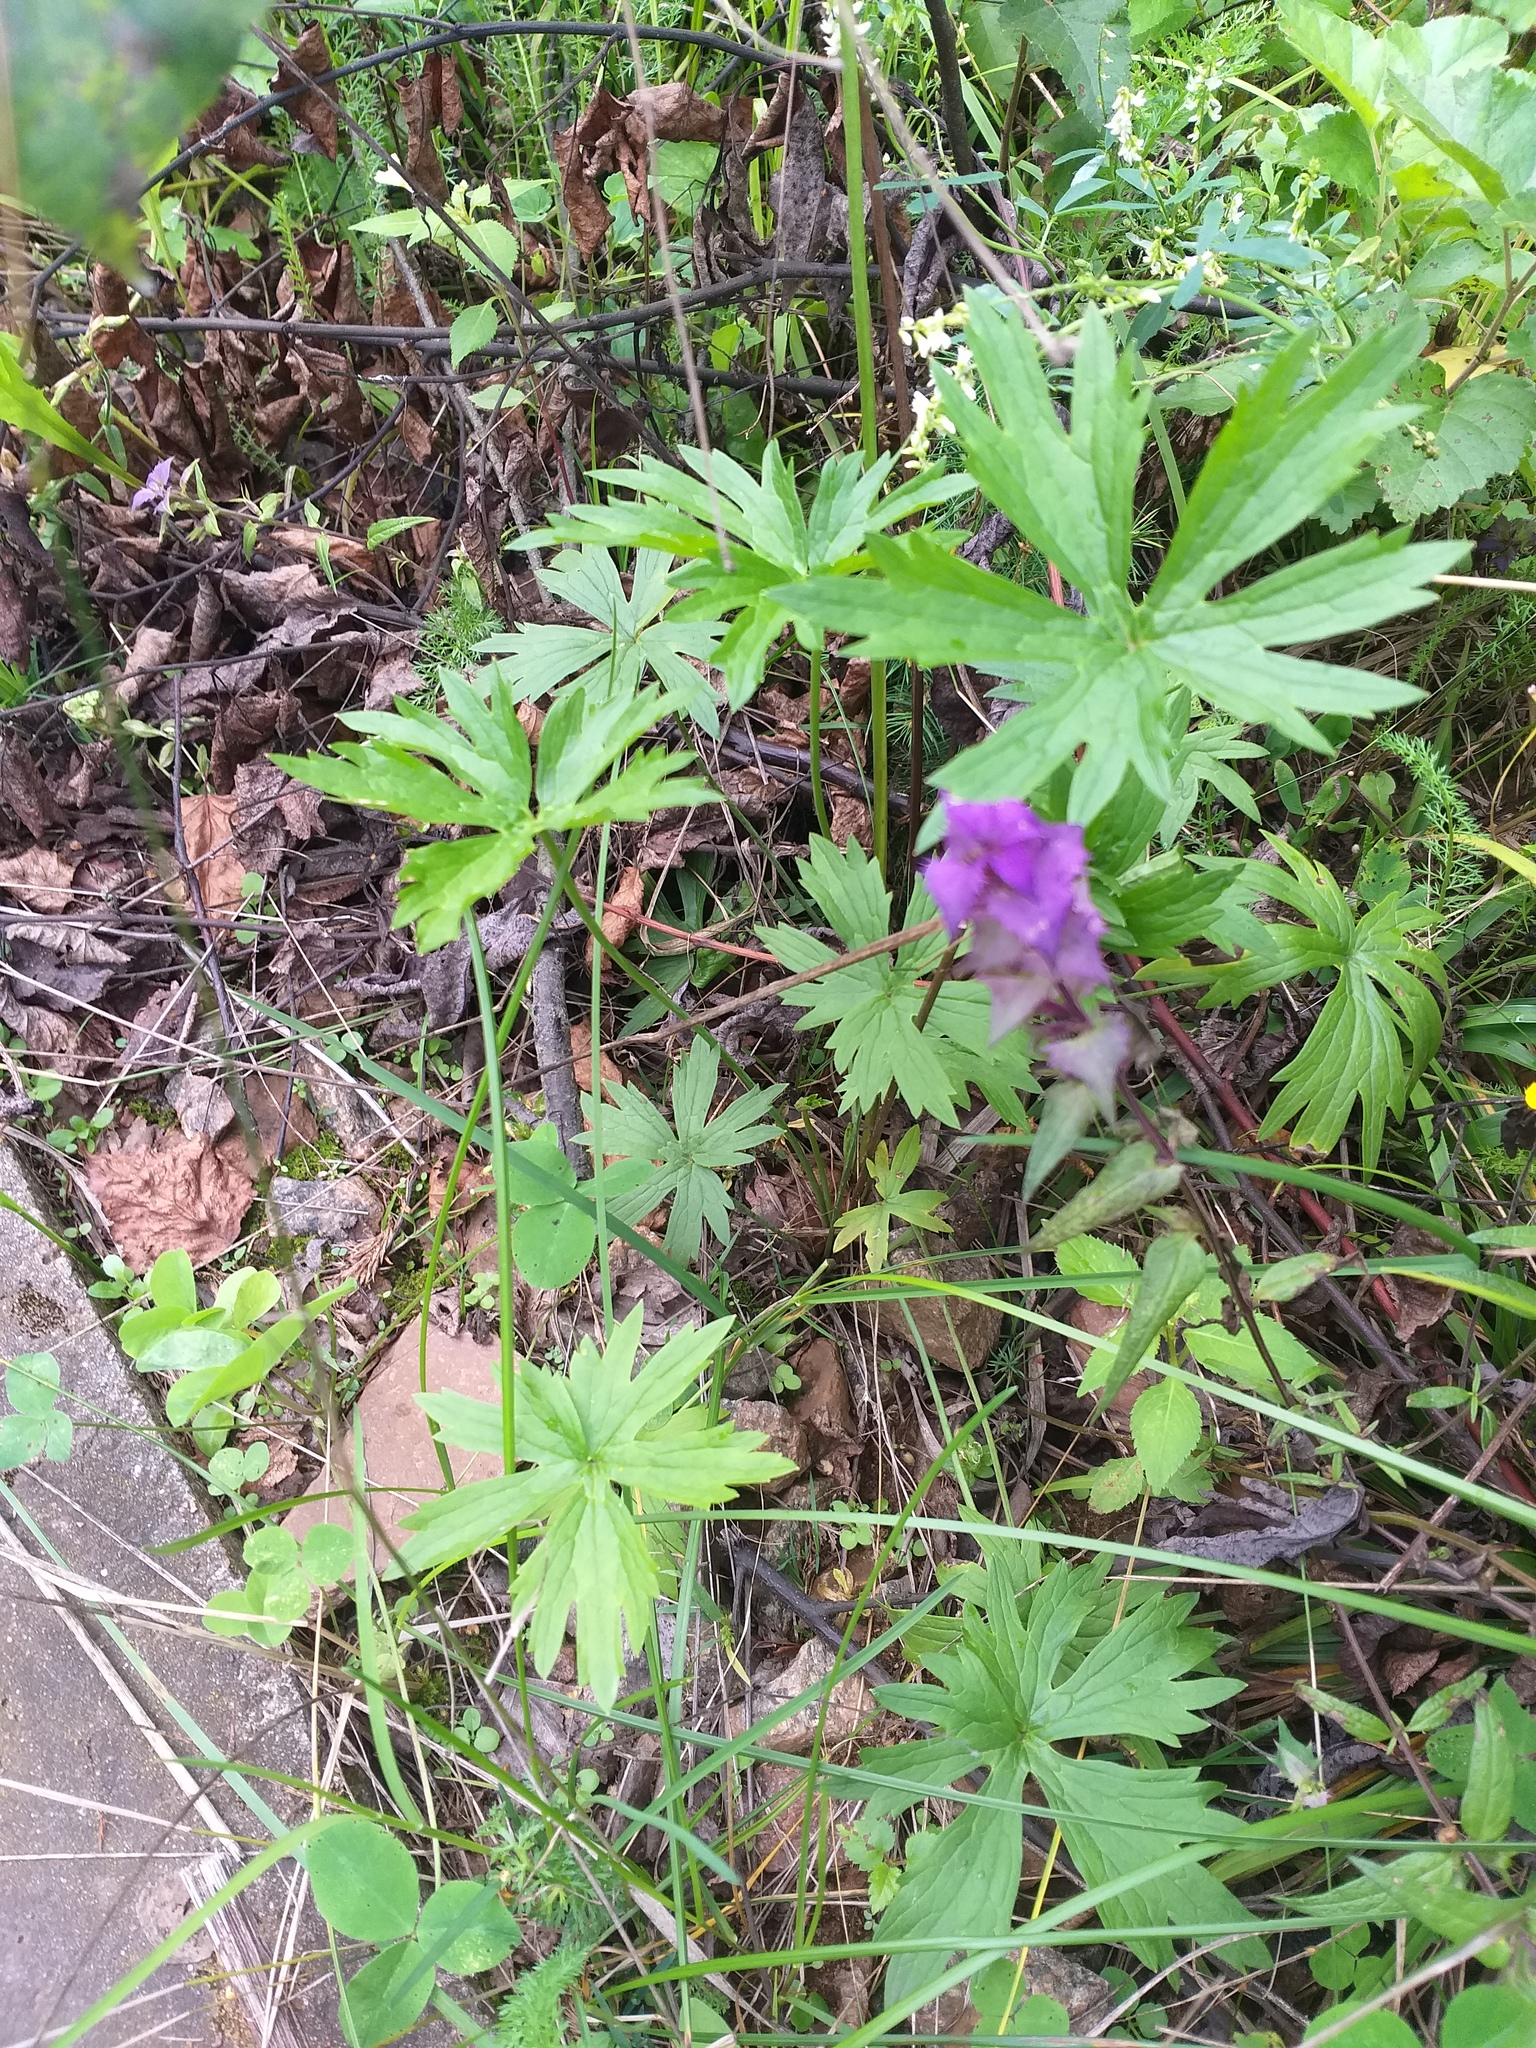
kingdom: Plantae
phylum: Tracheophyta
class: Magnoliopsida
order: Ranunculales
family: Ranunculaceae
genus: Ranunculus
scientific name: Ranunculus acris
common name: Meadow buttercup
